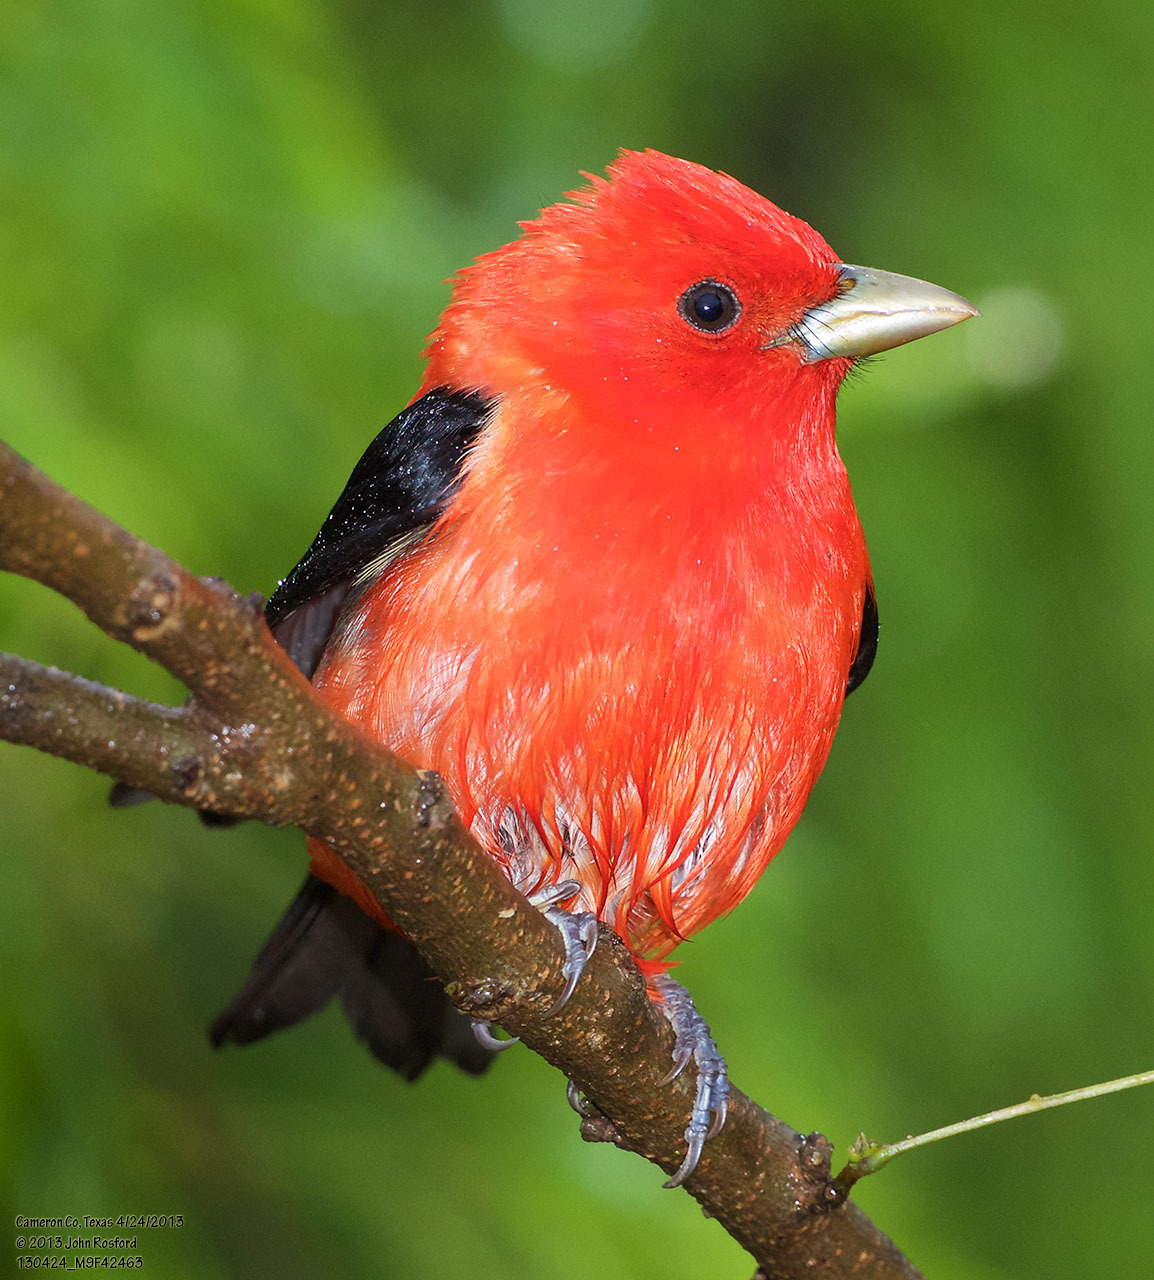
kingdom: Animalia
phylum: Chordata
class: Aves
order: Passeriformes
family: Cardinalidae
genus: Piranga
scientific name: Piranga olivacea
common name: Scarlet tanager
